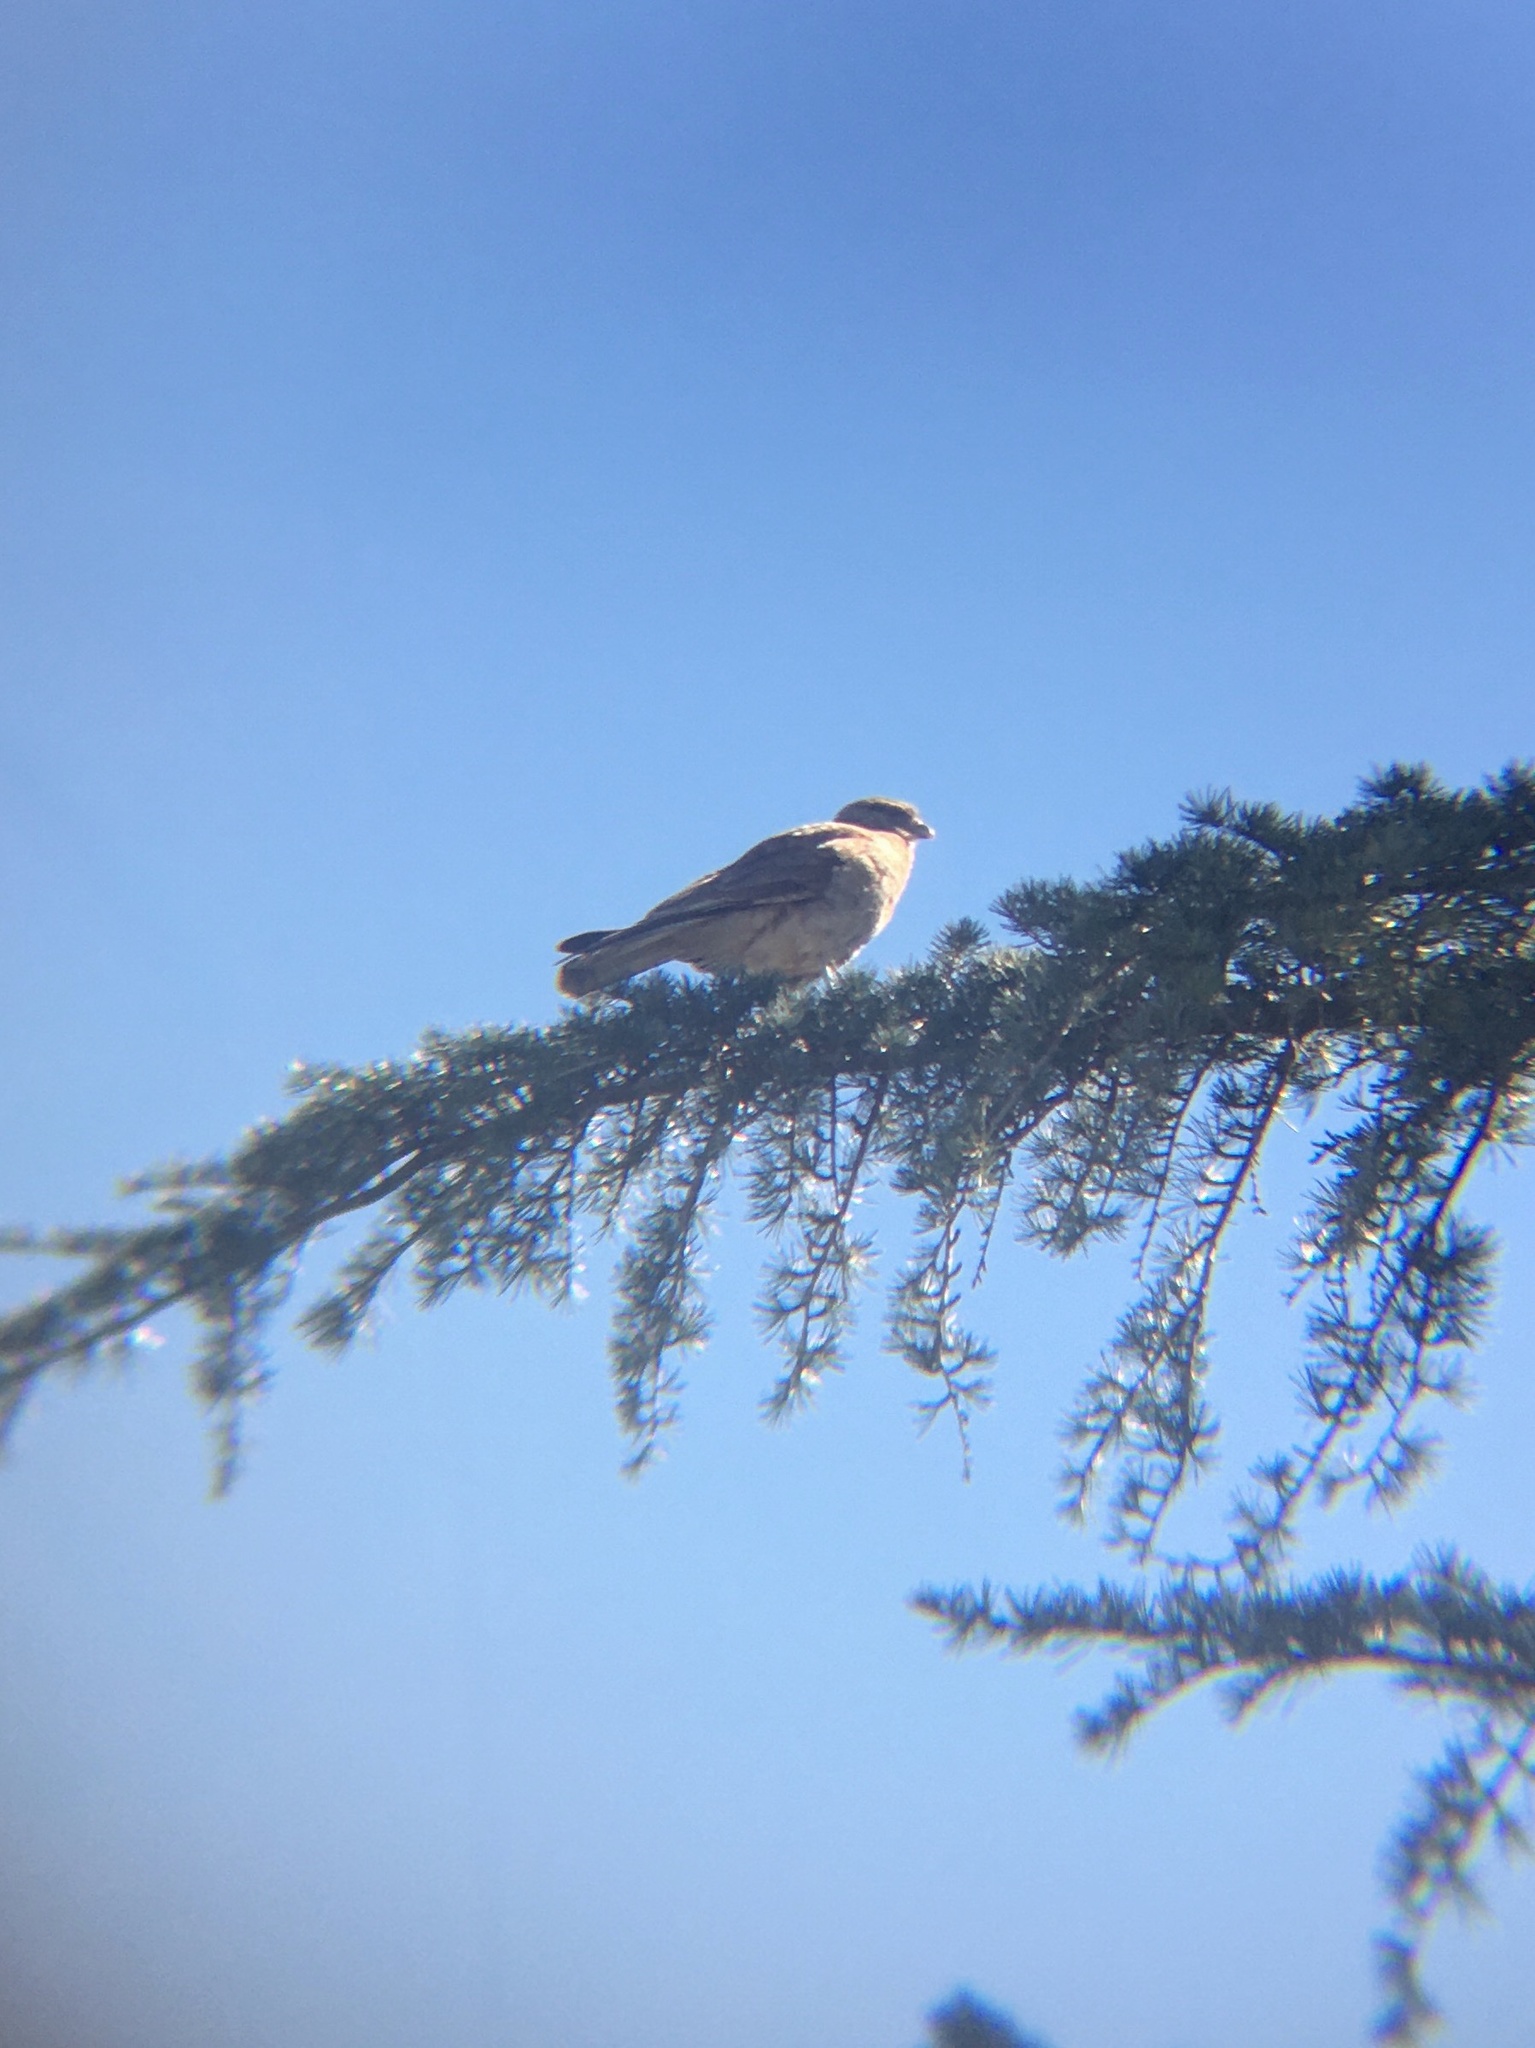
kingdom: Animalia
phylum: Chordata
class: Aves
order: Falconiformes
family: Falconidae
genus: Daptrius
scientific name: Daptrius
